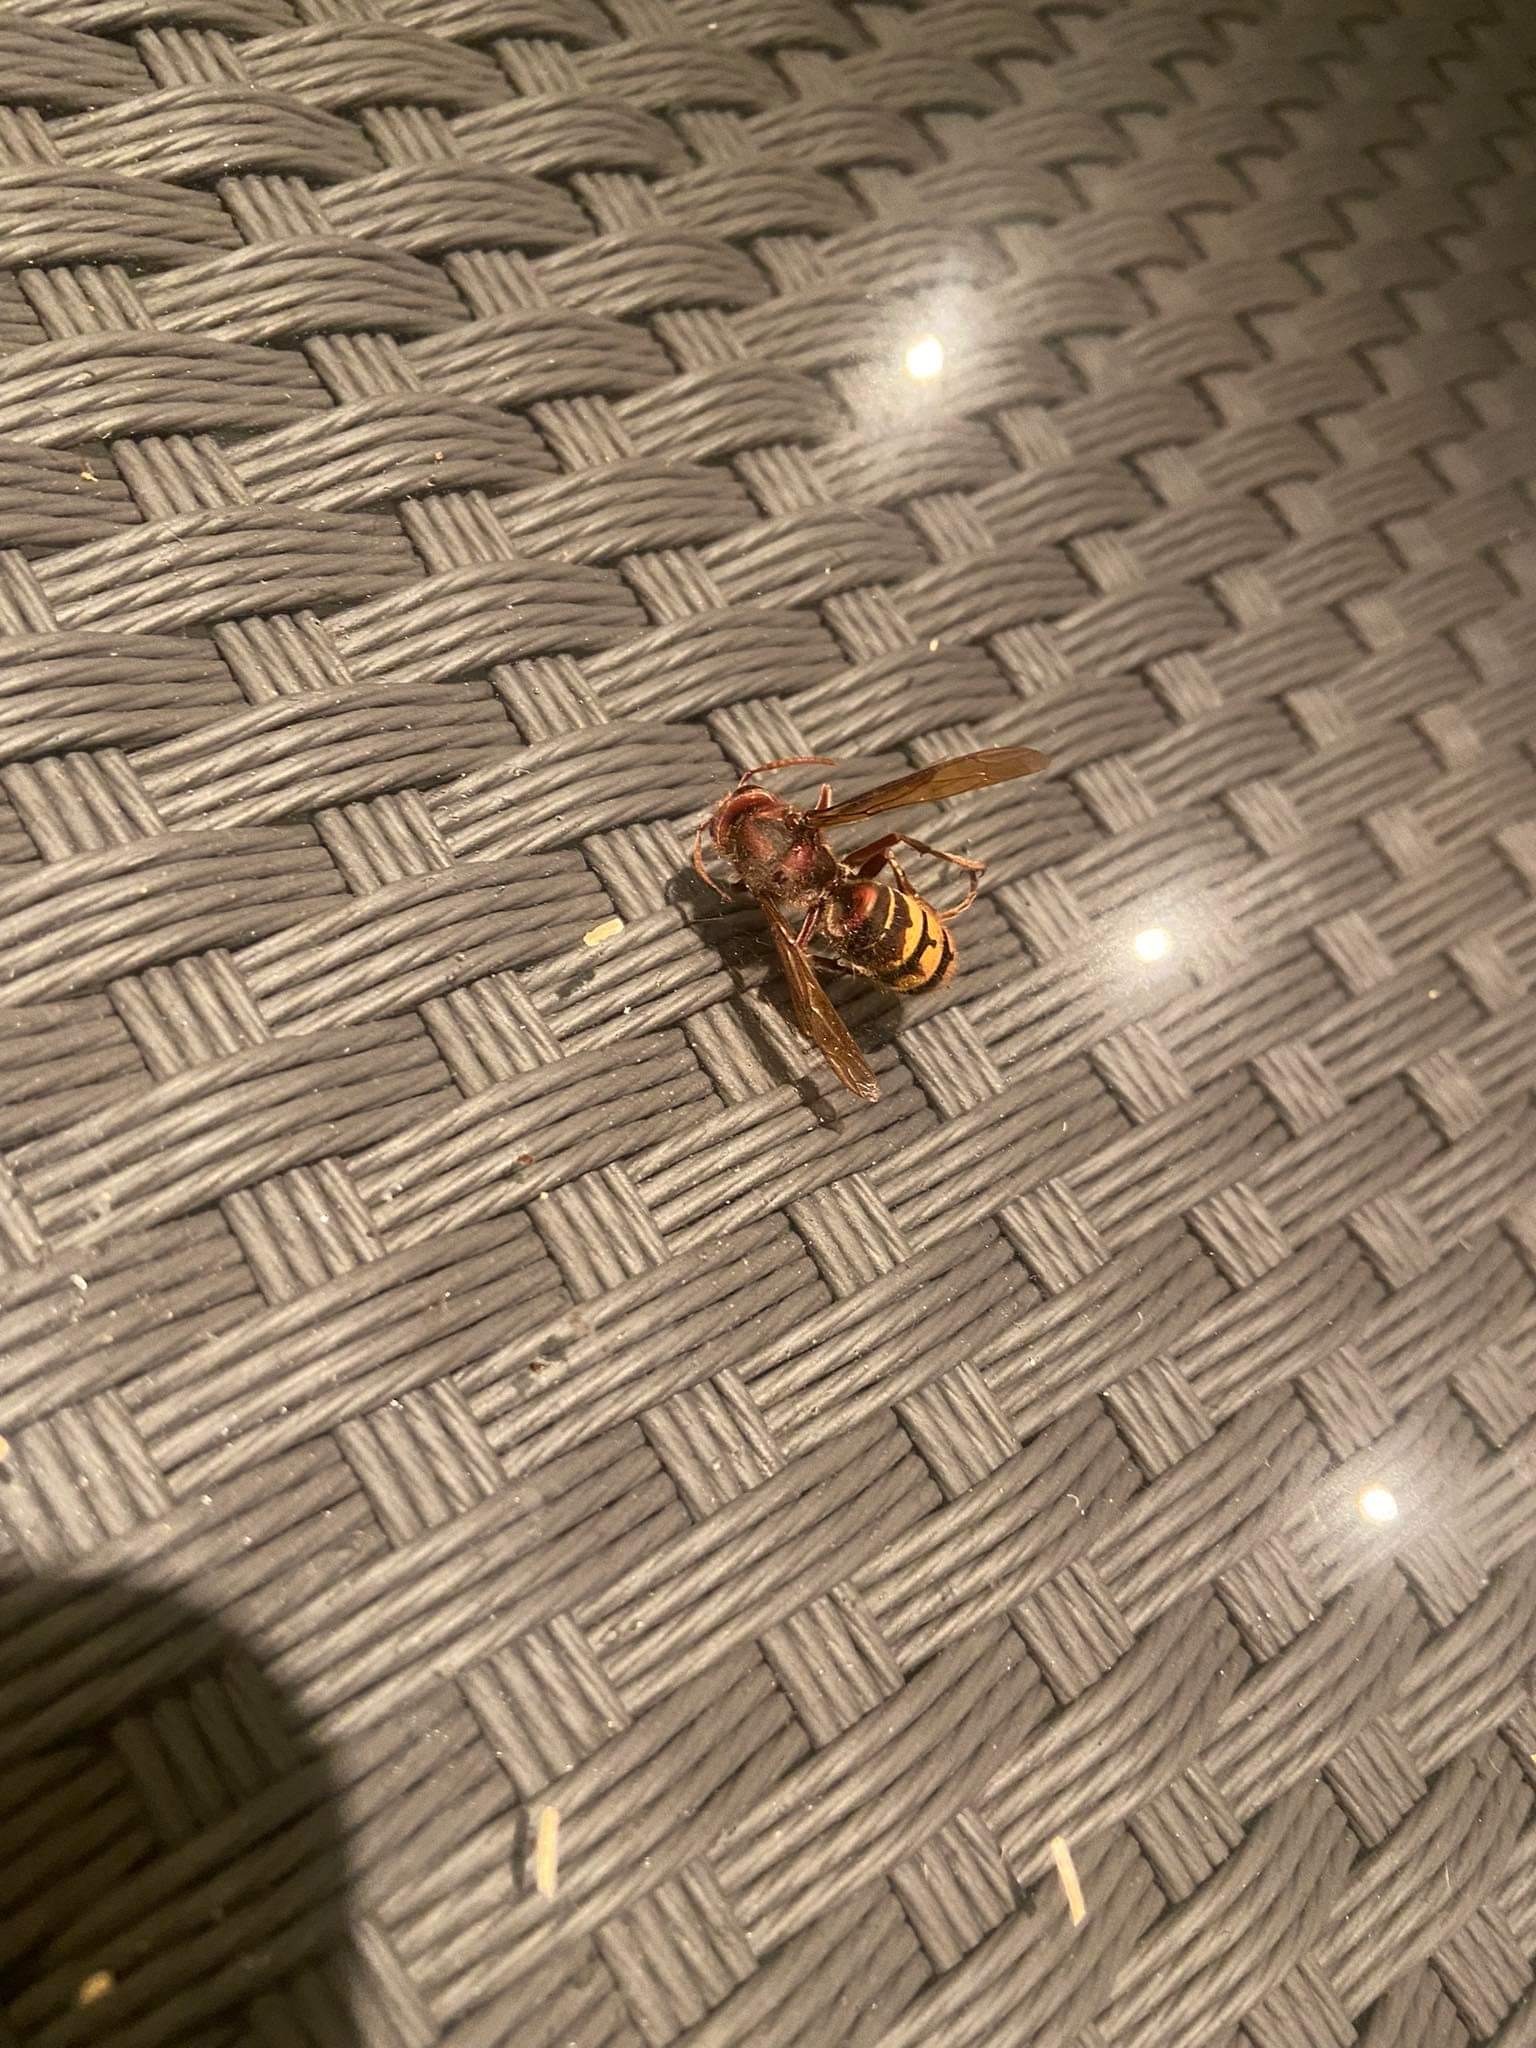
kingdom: Animalia
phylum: Arthropoda
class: Insecta
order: Hymenoptera
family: Vespidae
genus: Vespa
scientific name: Vespa crabro
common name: Hornet
